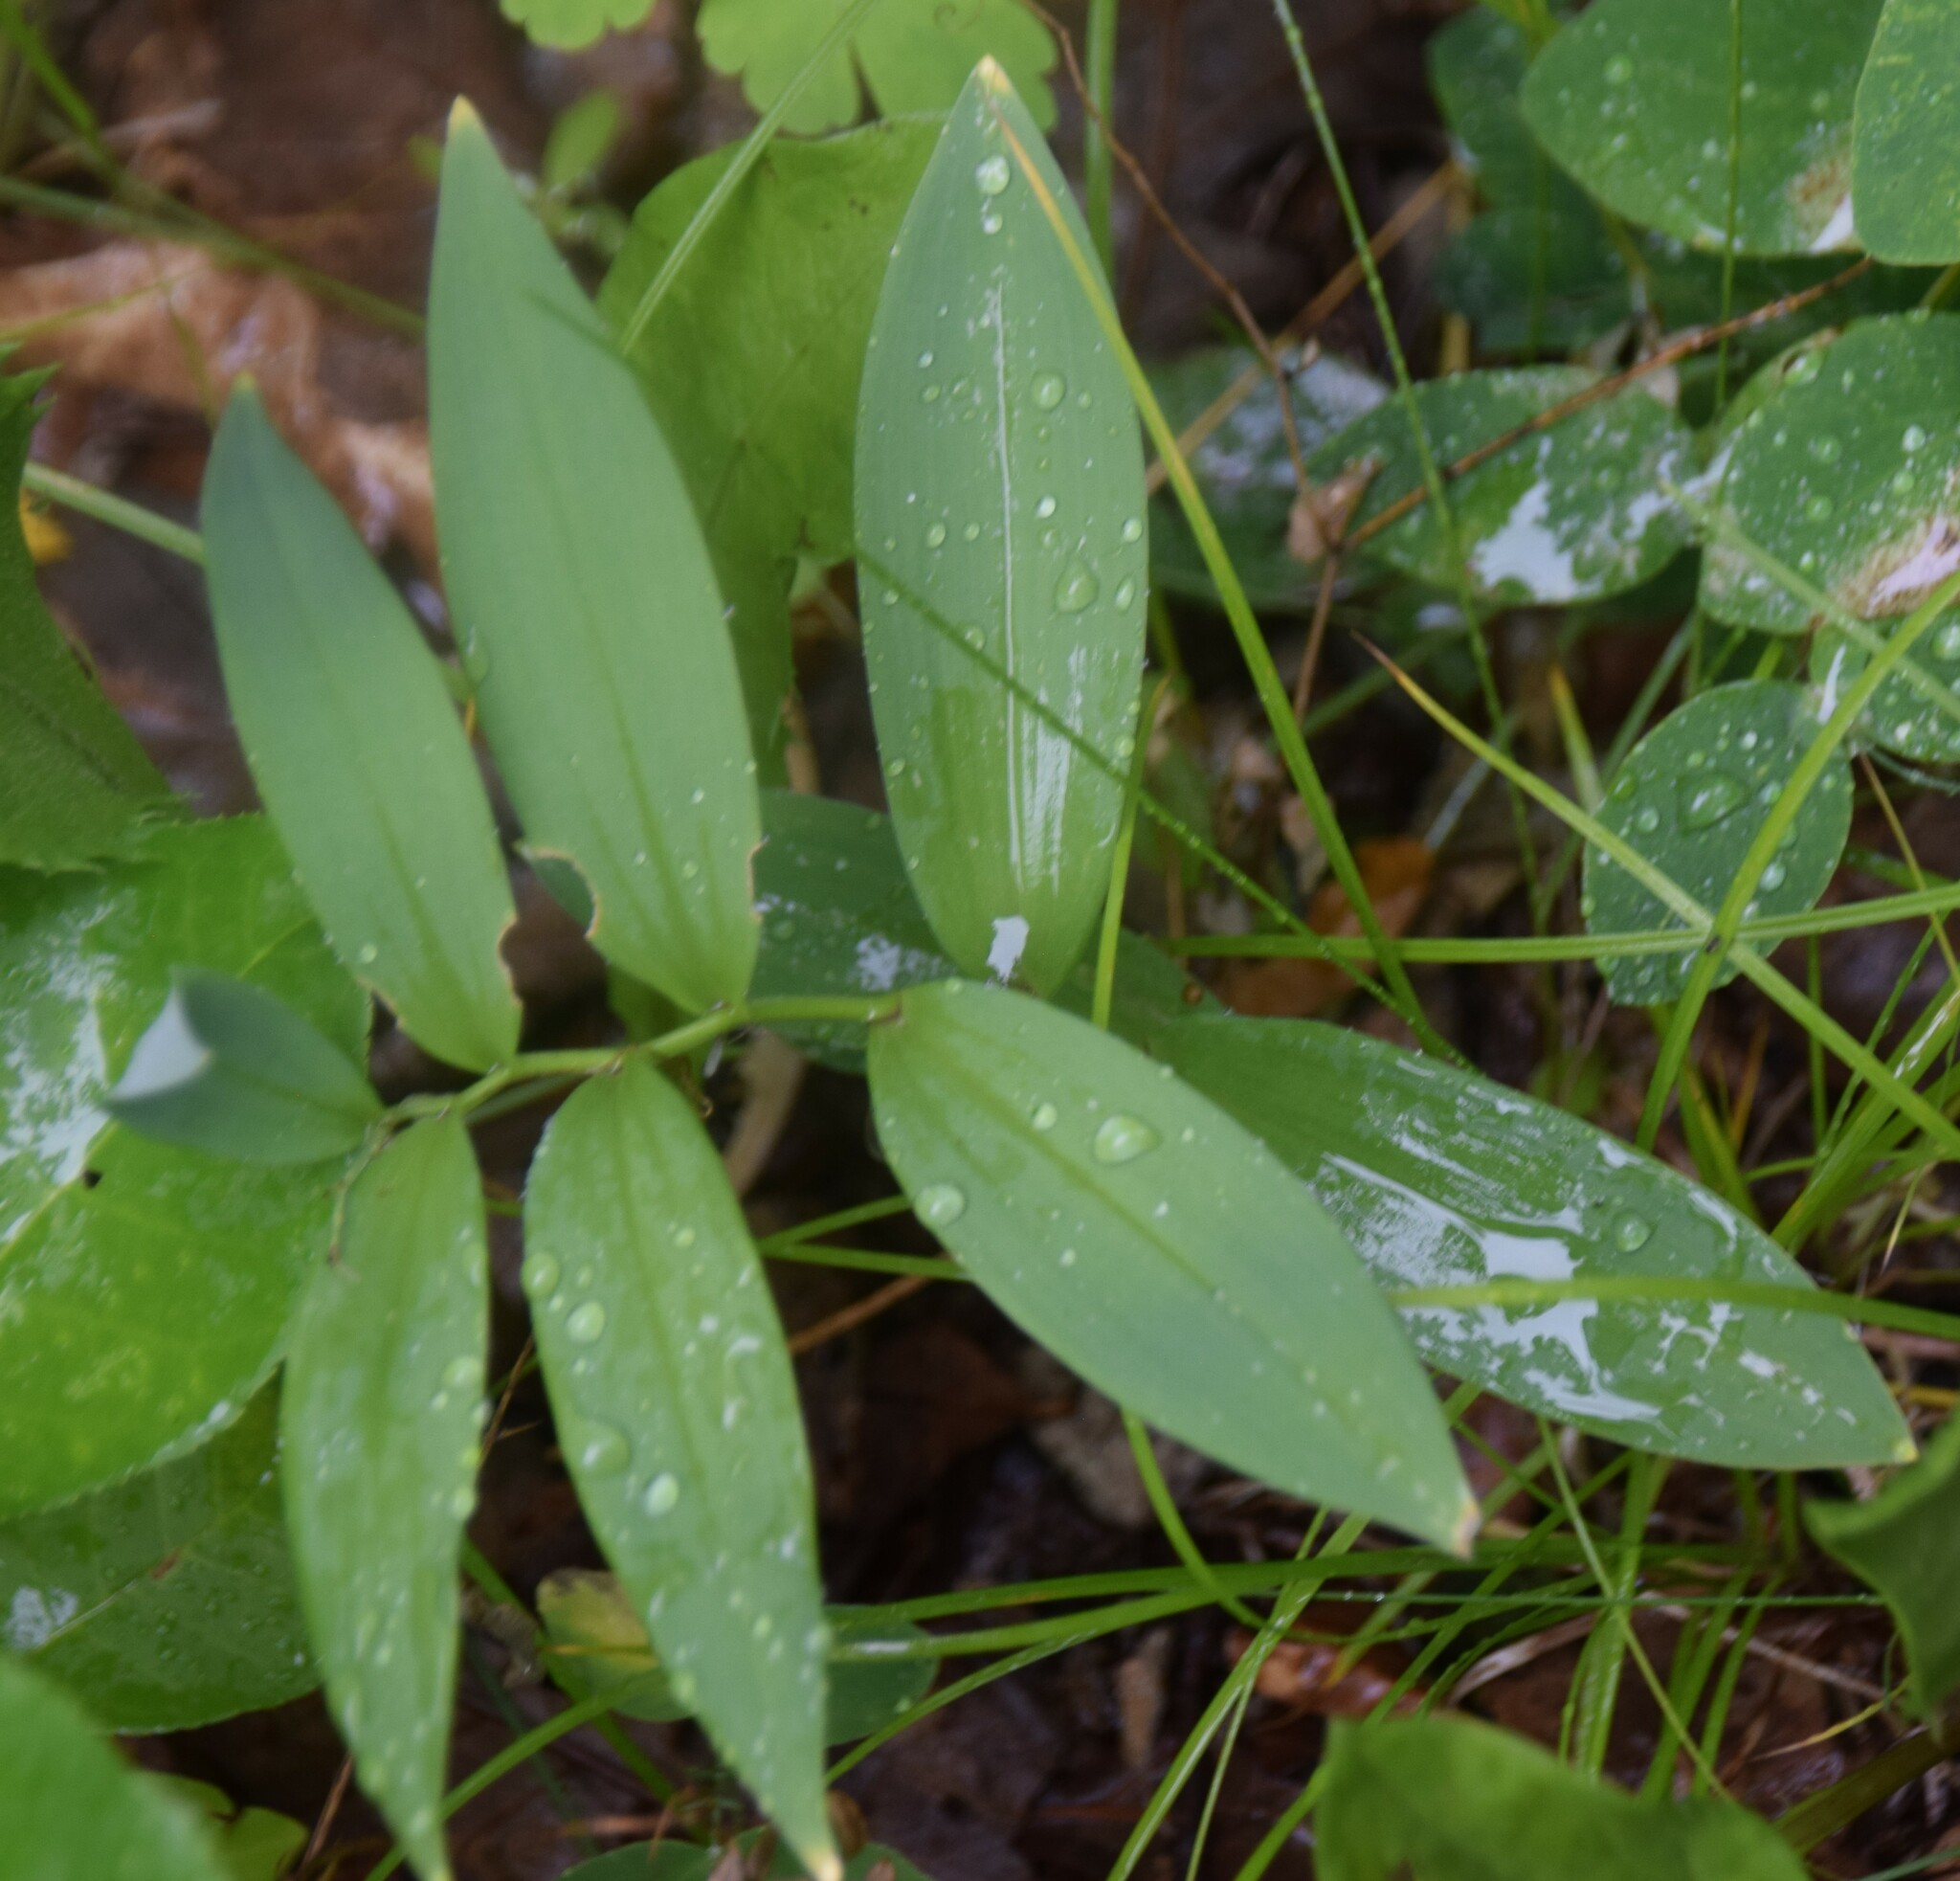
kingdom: Plantae
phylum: Tracheophyta
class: Liliopsida
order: Asparagales
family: Asparagaceae
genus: Maianthemum
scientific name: Maianthemum stellatum
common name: Little false solomon's seal
